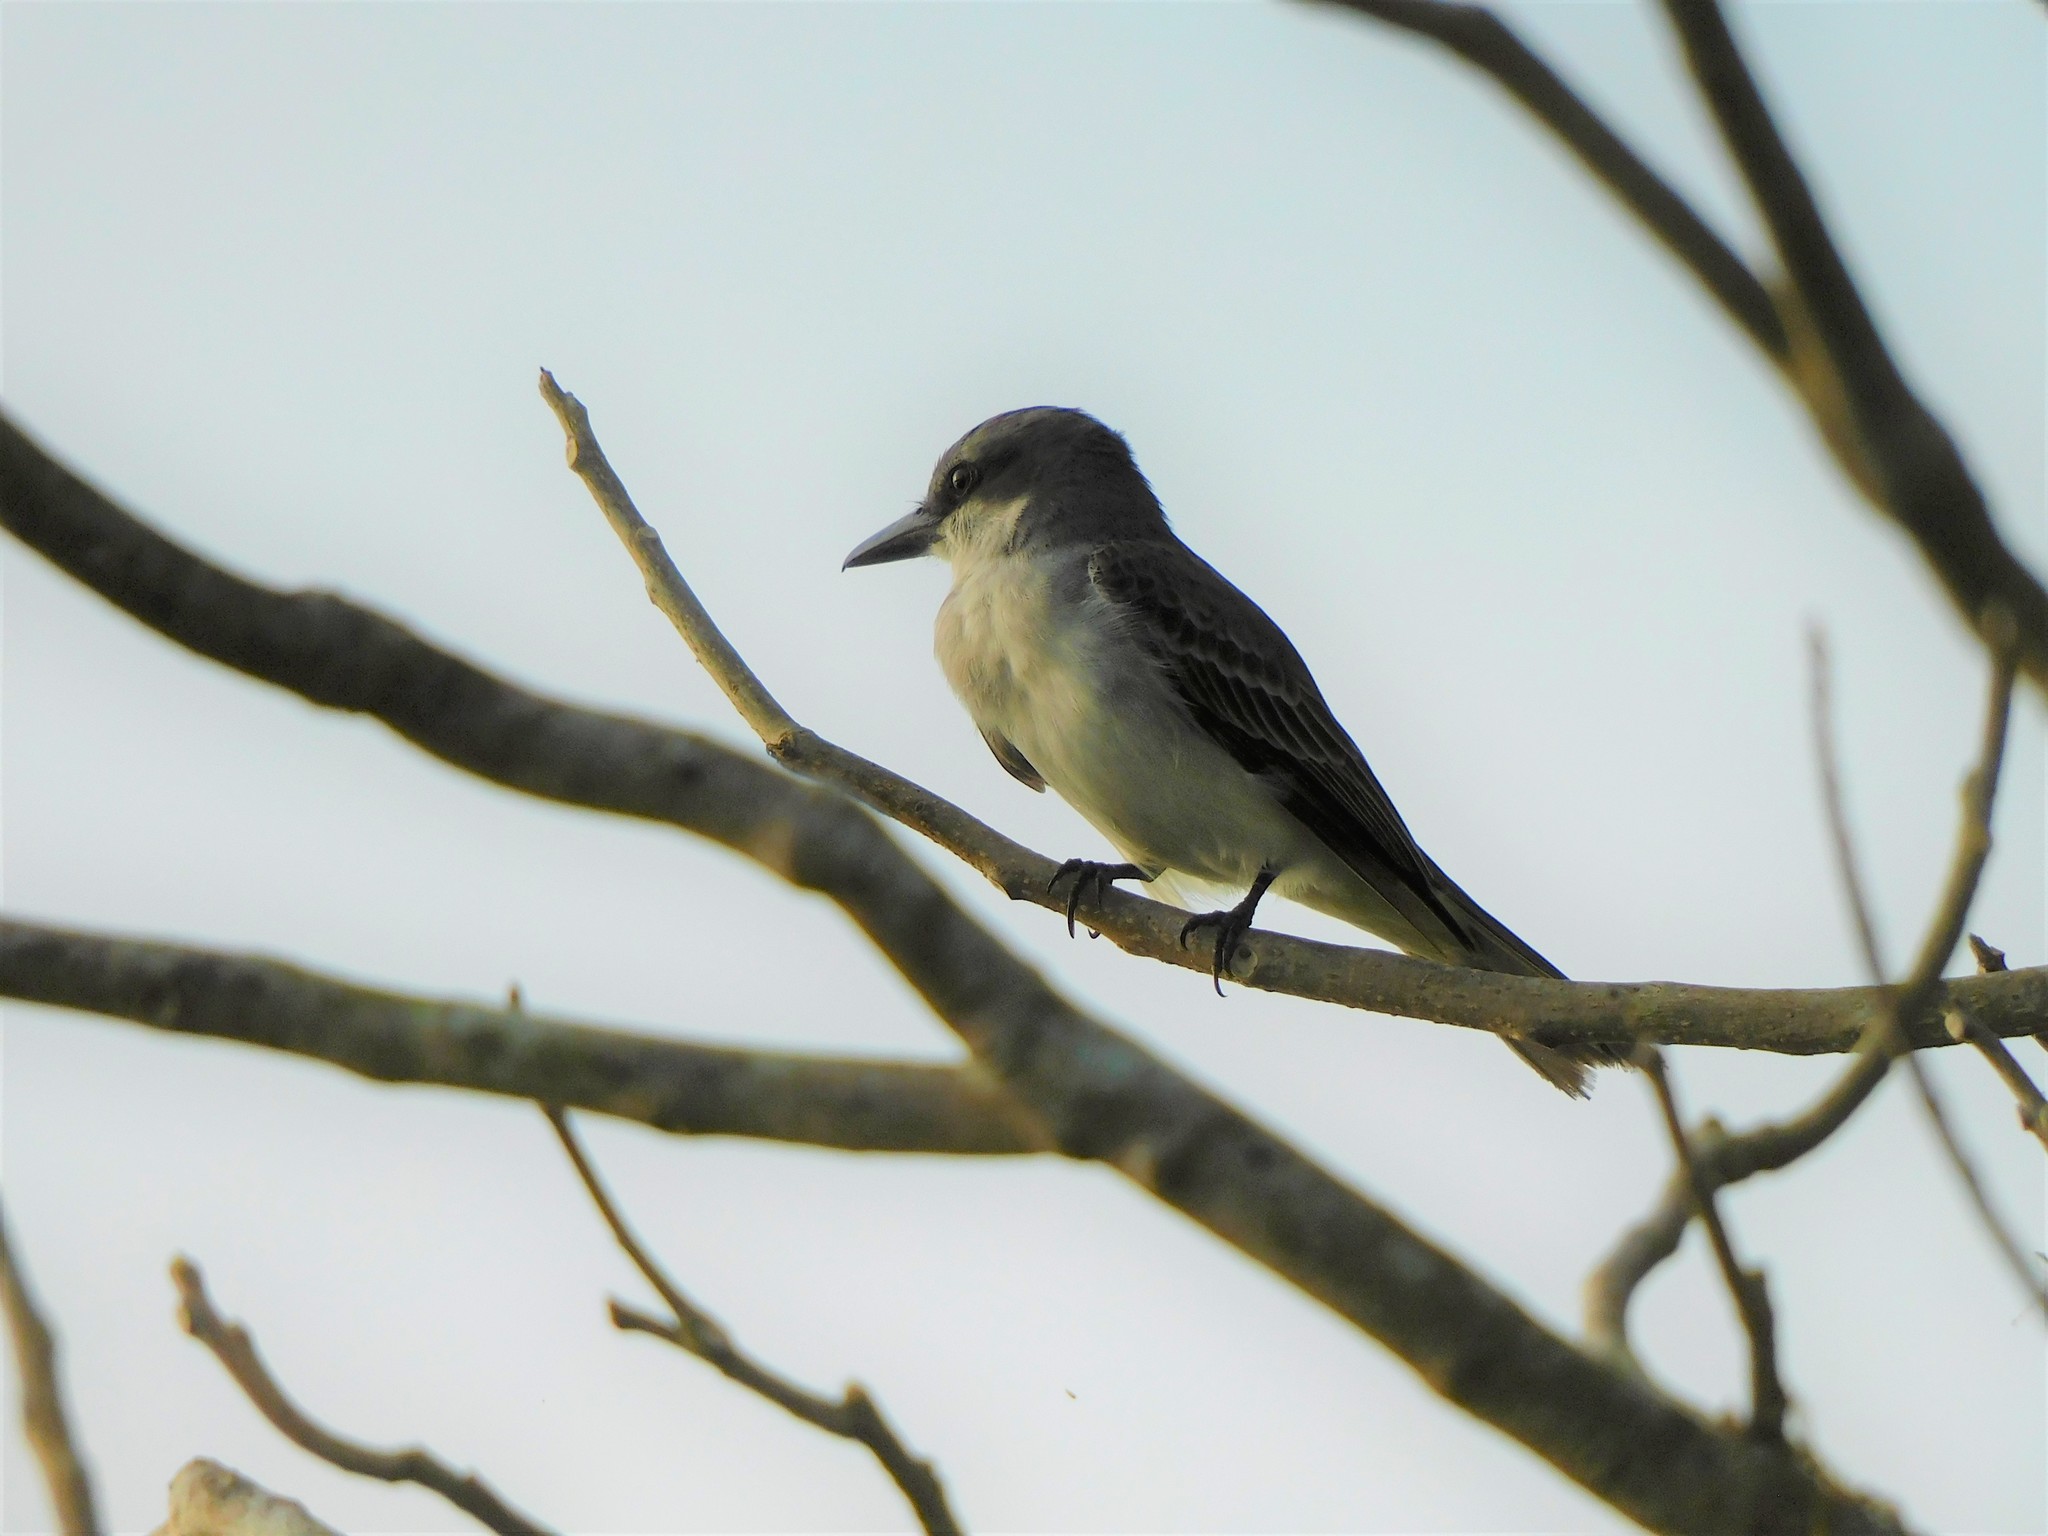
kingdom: Animalia
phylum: Chordata
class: Aves
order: Passeriformes
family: Tyrannidae
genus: Tyrannus
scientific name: Tyrannus dominicensis
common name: Gray kingbird
